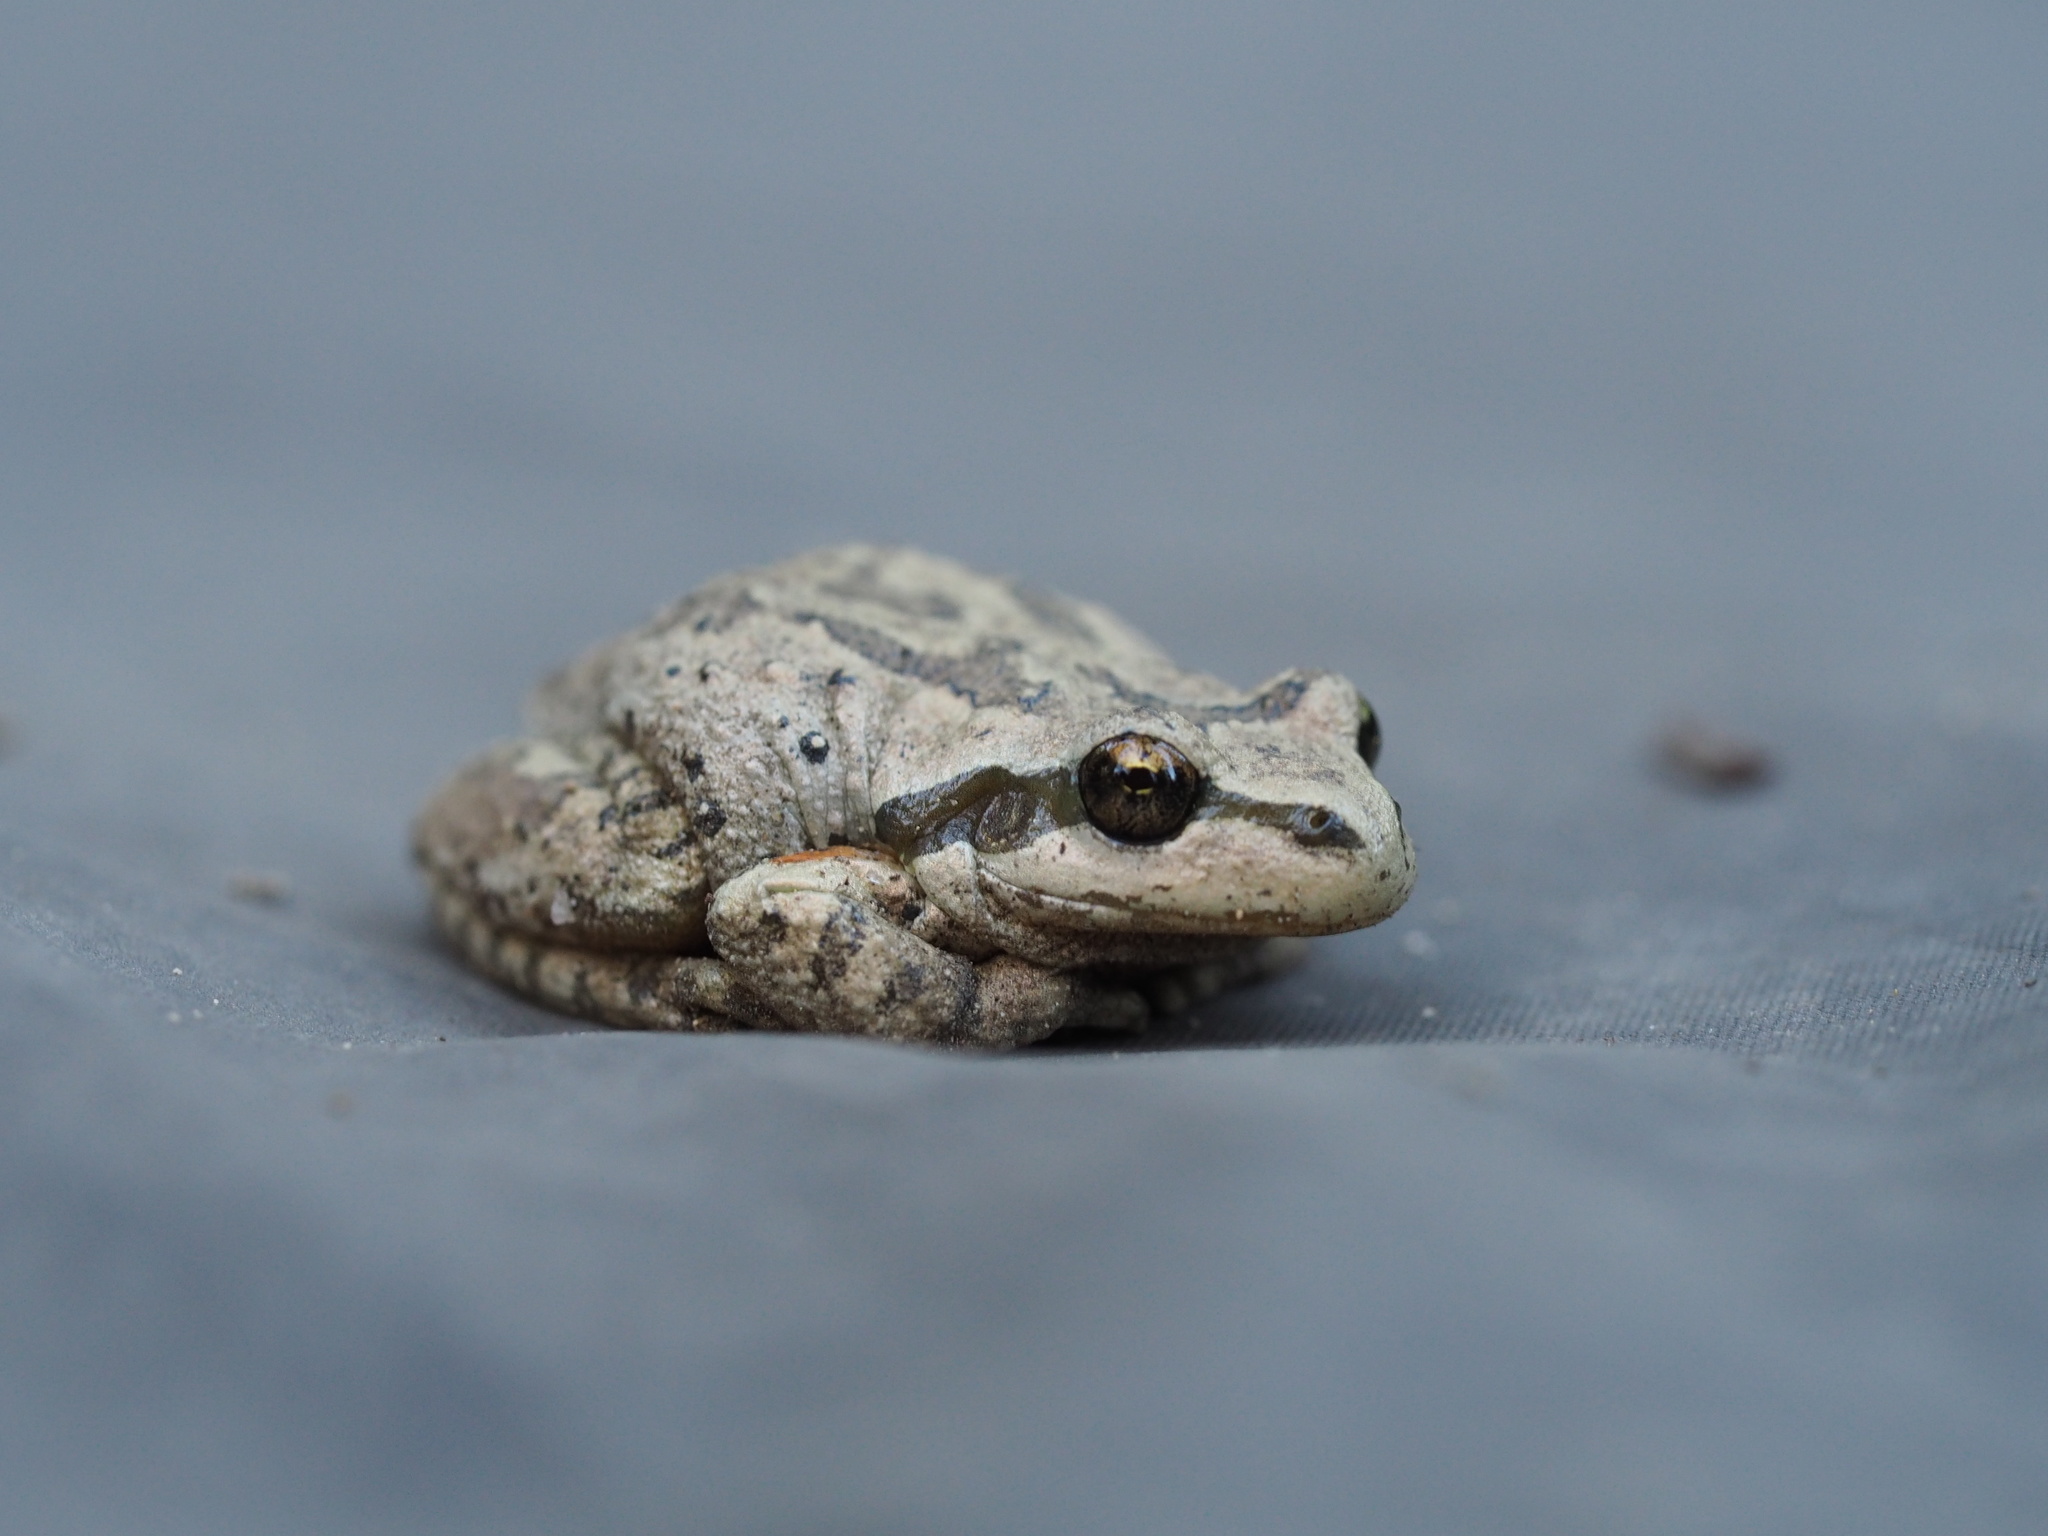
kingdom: Animalia
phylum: Chordata
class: Amphibia
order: Anura
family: Hylidae
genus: Pseudacris
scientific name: Pseudacris regilla
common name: Pacific chorus frog
